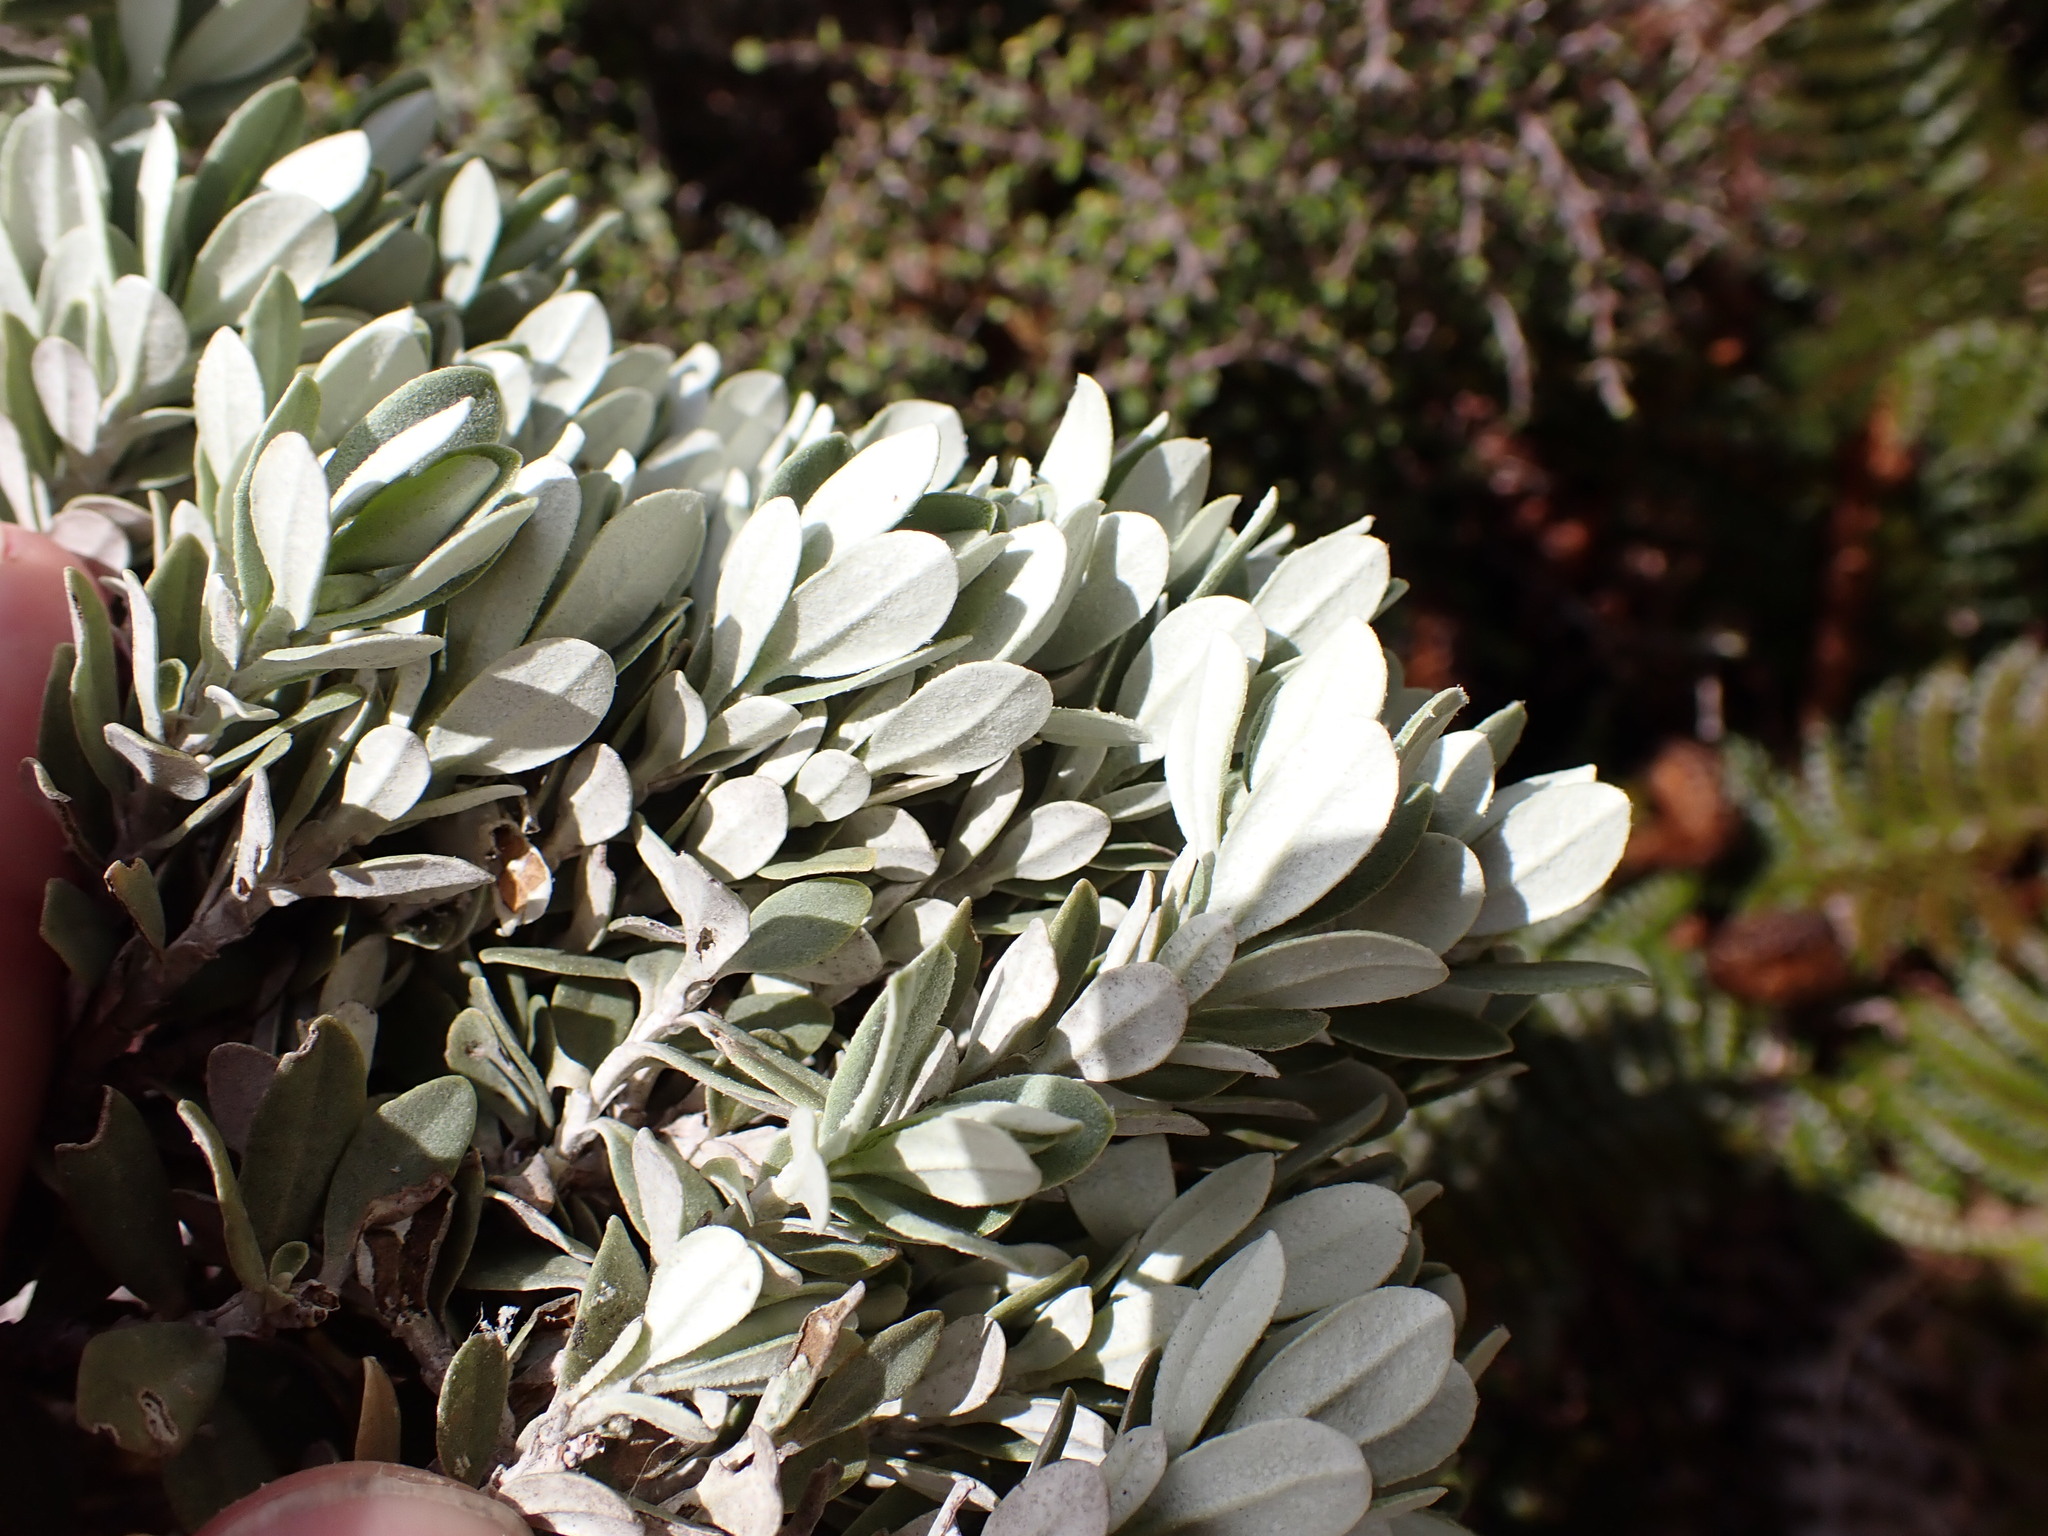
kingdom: Plantae
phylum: Tracheophyta
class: Magnoliopsida
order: Asterales
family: Asteraceae
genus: Olearia
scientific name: Olearia moschata
